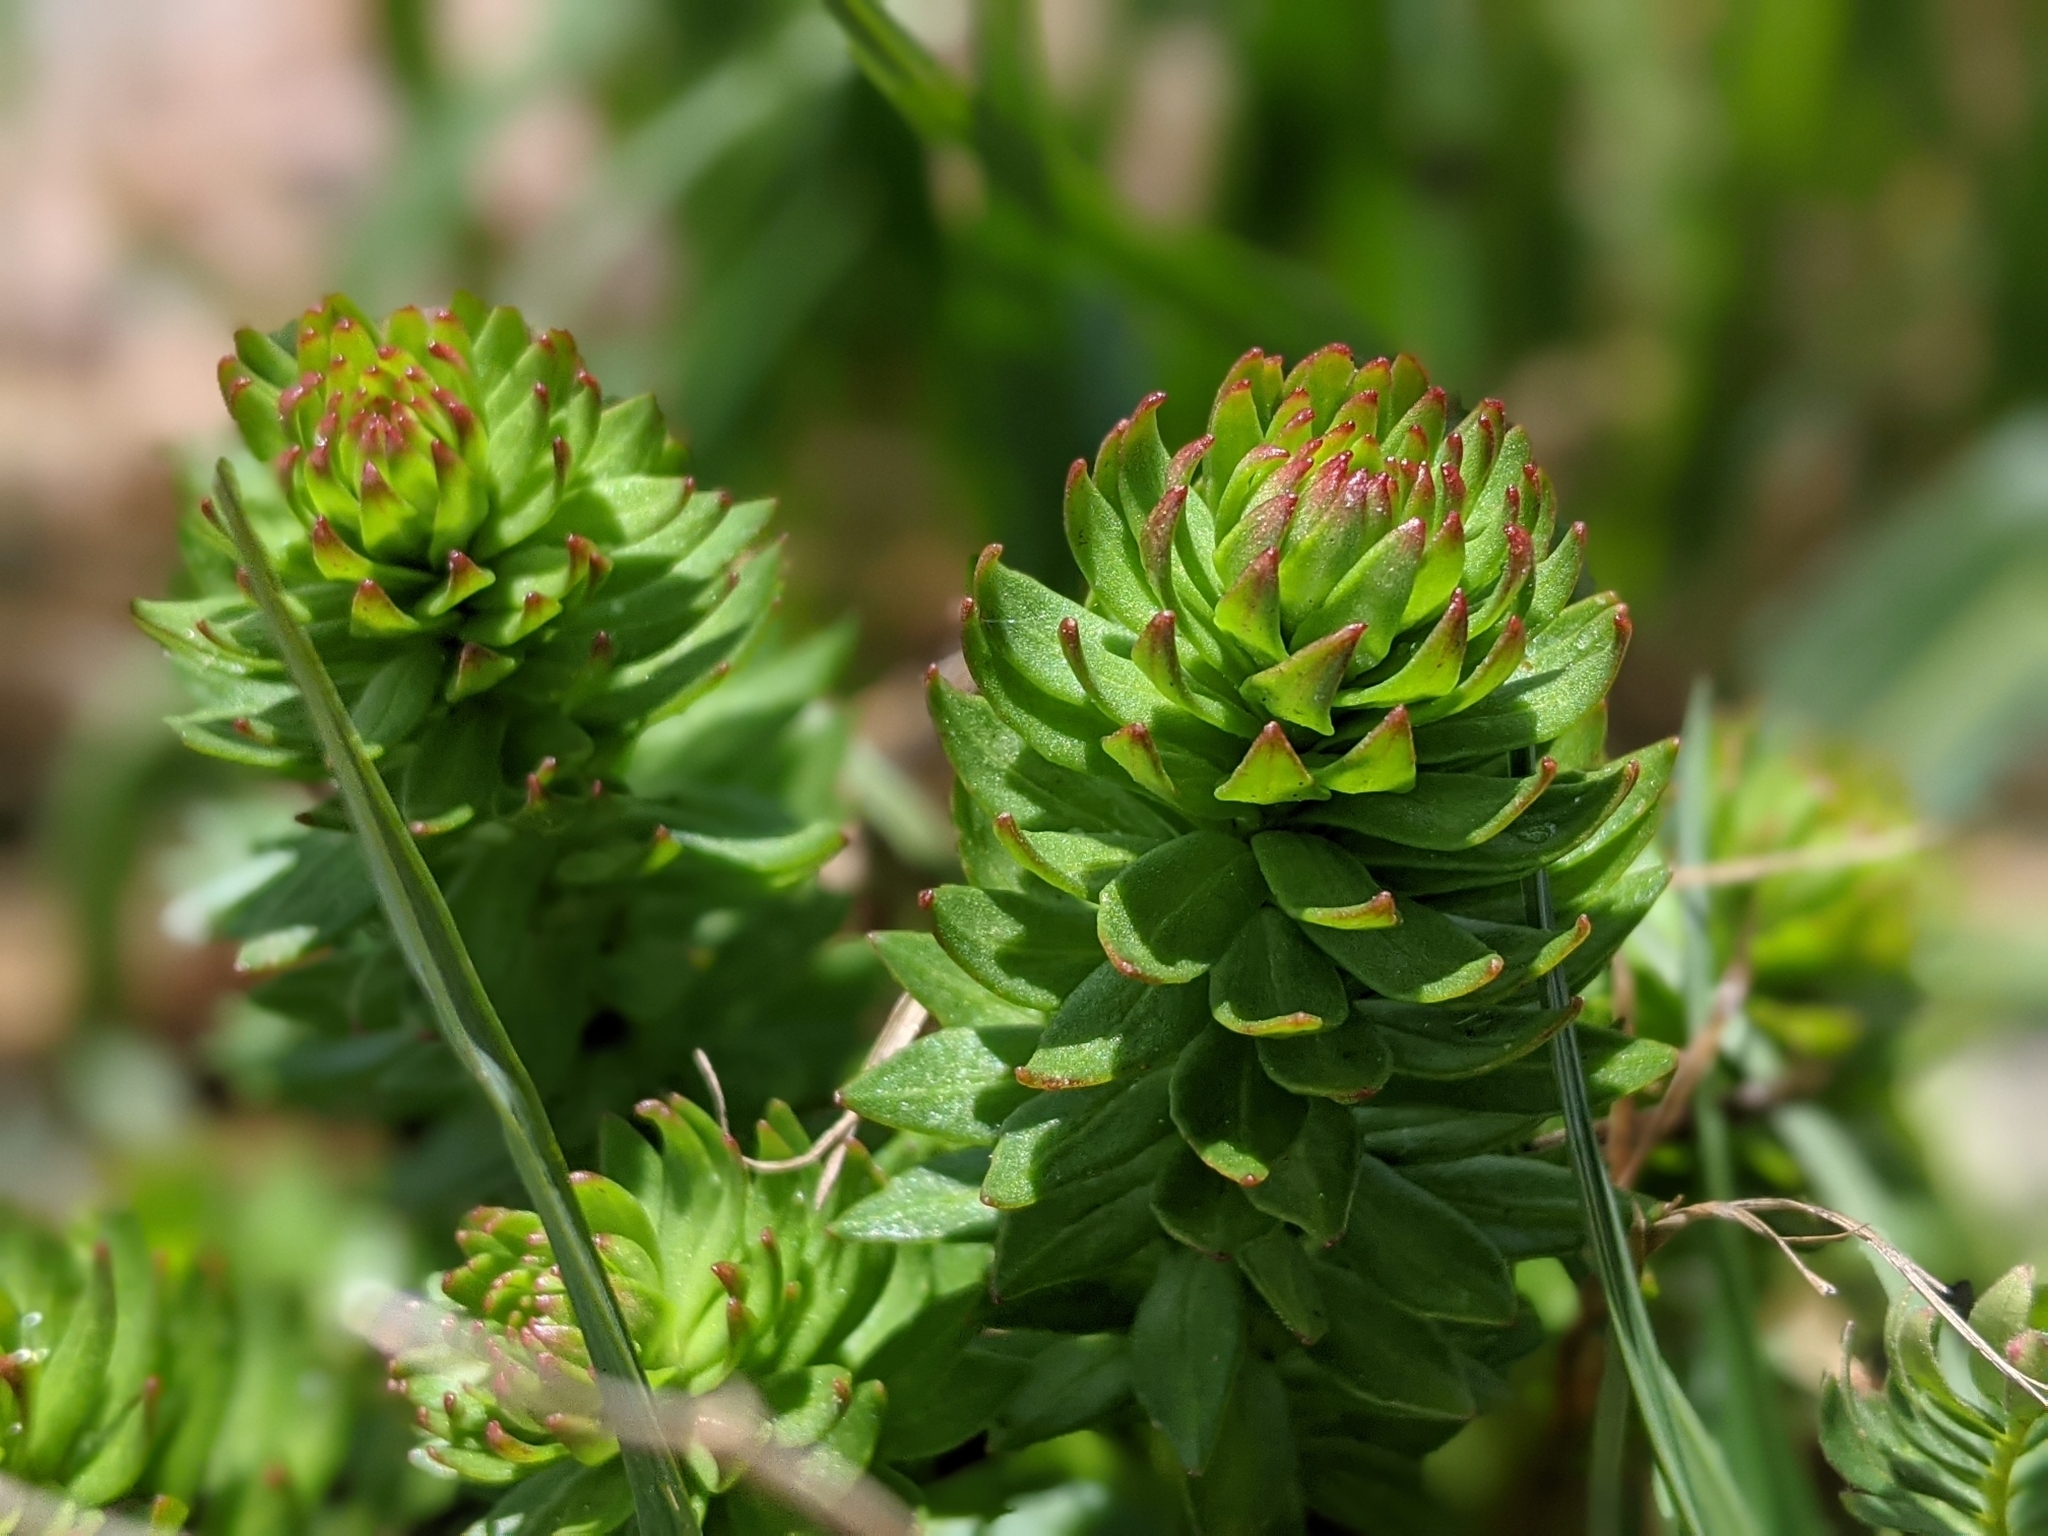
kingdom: Plantae
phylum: Tracheophyta
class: Magnoliopsida
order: Saxifragales
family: Crassulaceae
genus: Rhodiola
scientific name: Rhodiola rhodantha
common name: Red orpine
